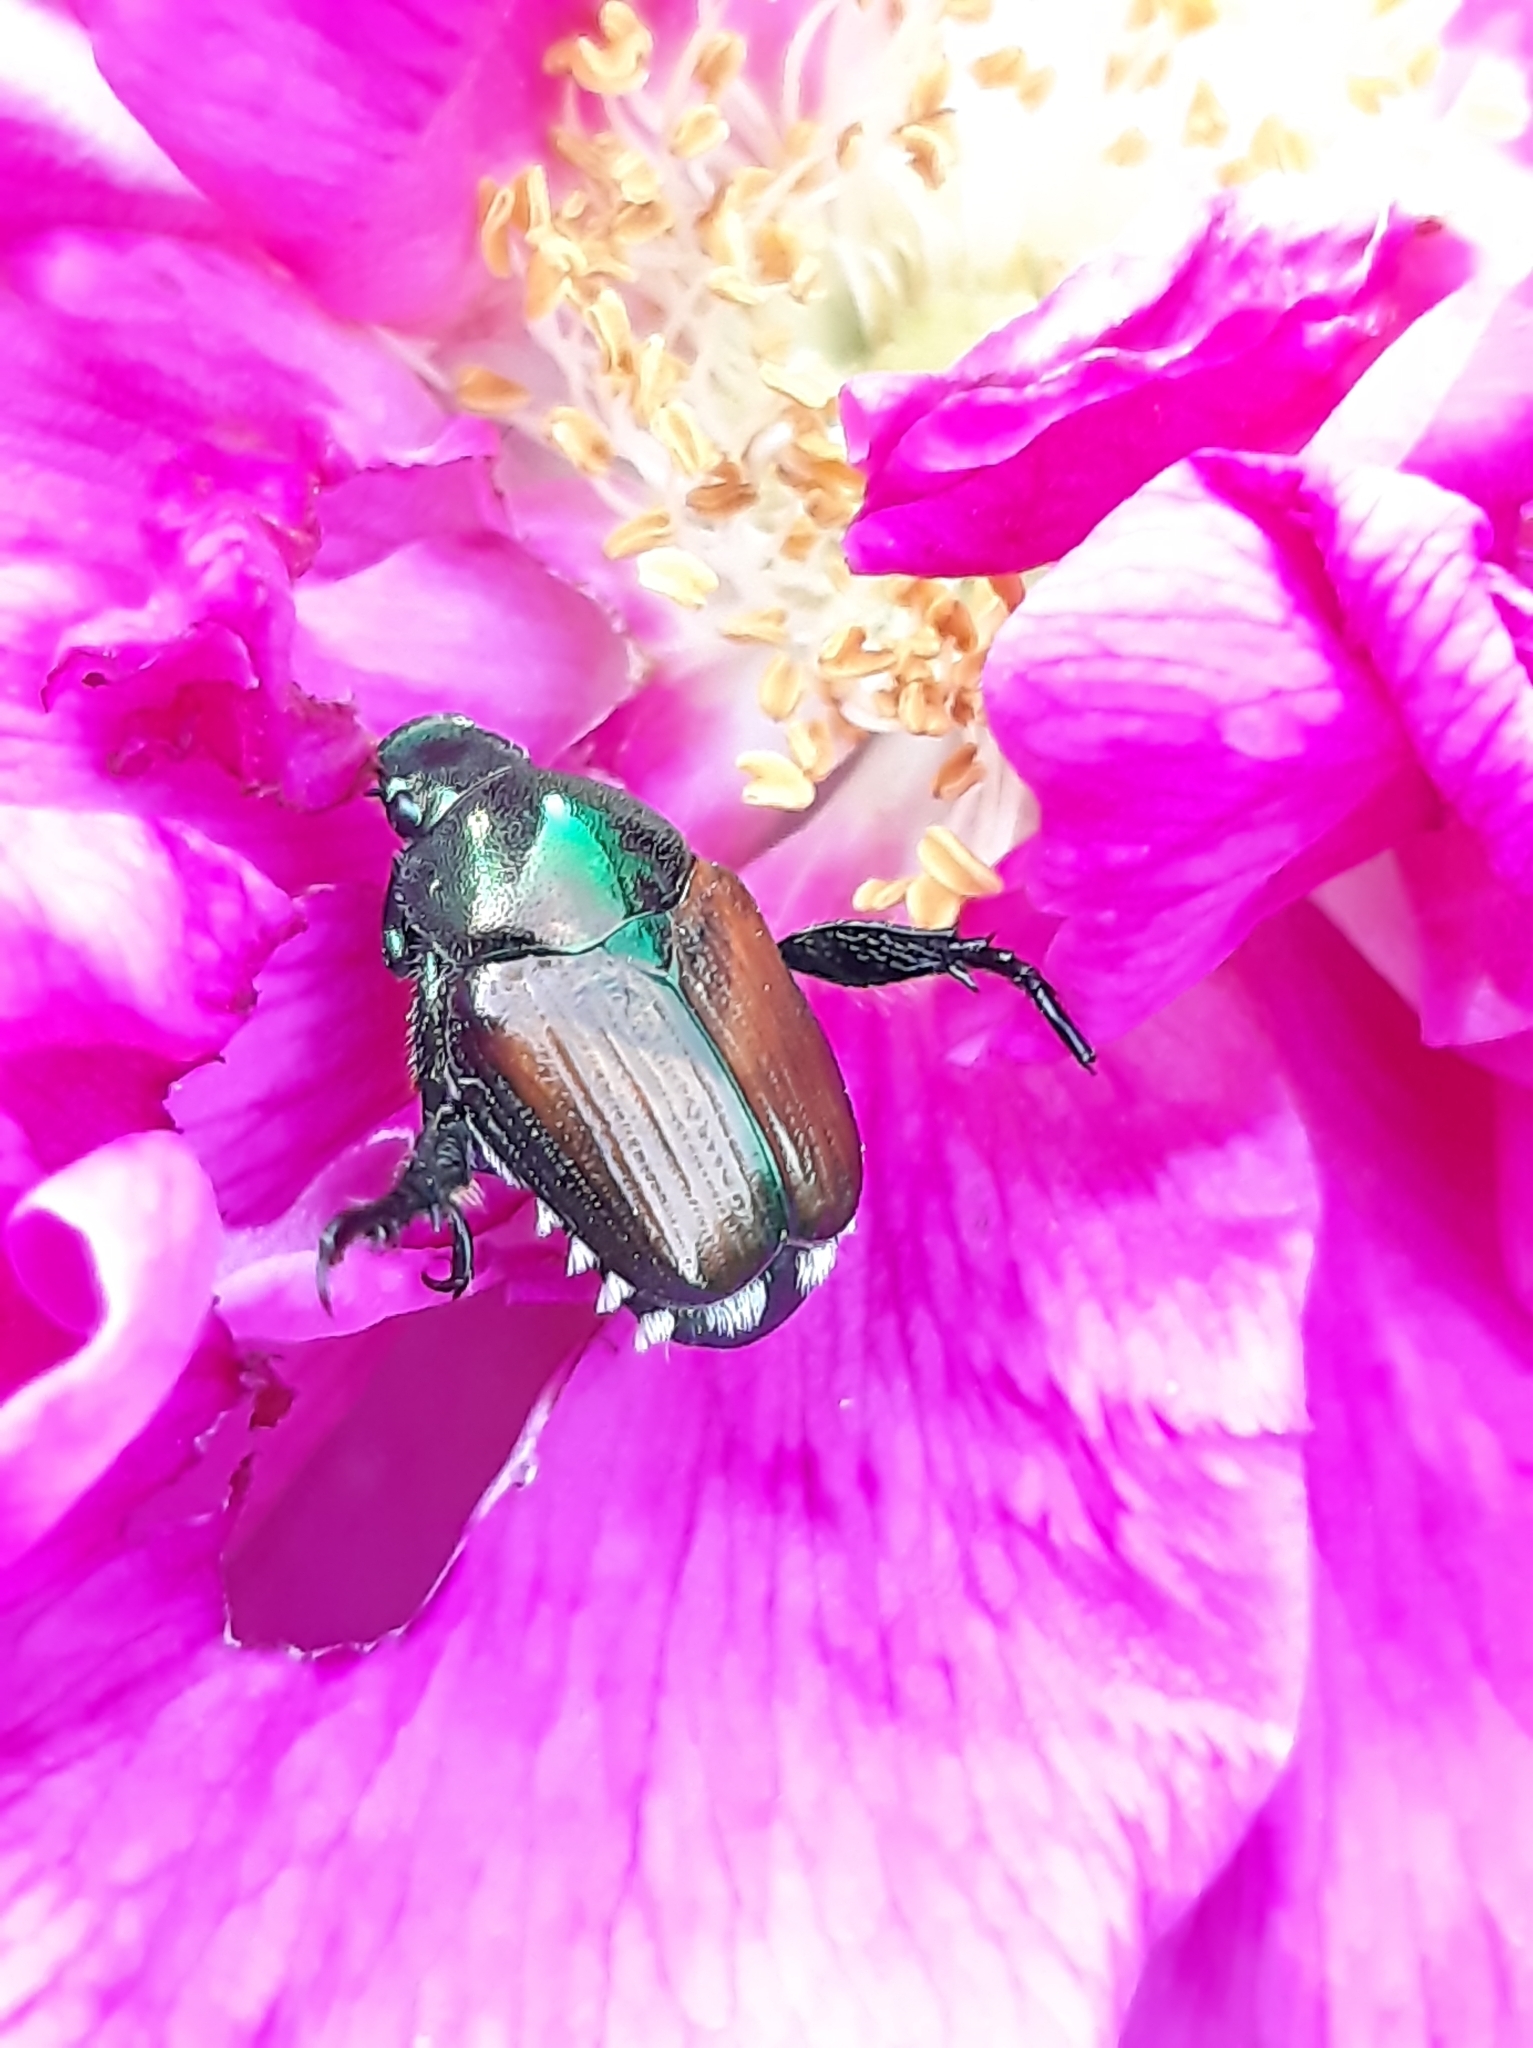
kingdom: Animalia
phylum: Arthropoda
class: Insecta
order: Coleoptera
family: Scarabaeidae
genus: Popillia
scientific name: Popillia japonica
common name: Japanese beetle
